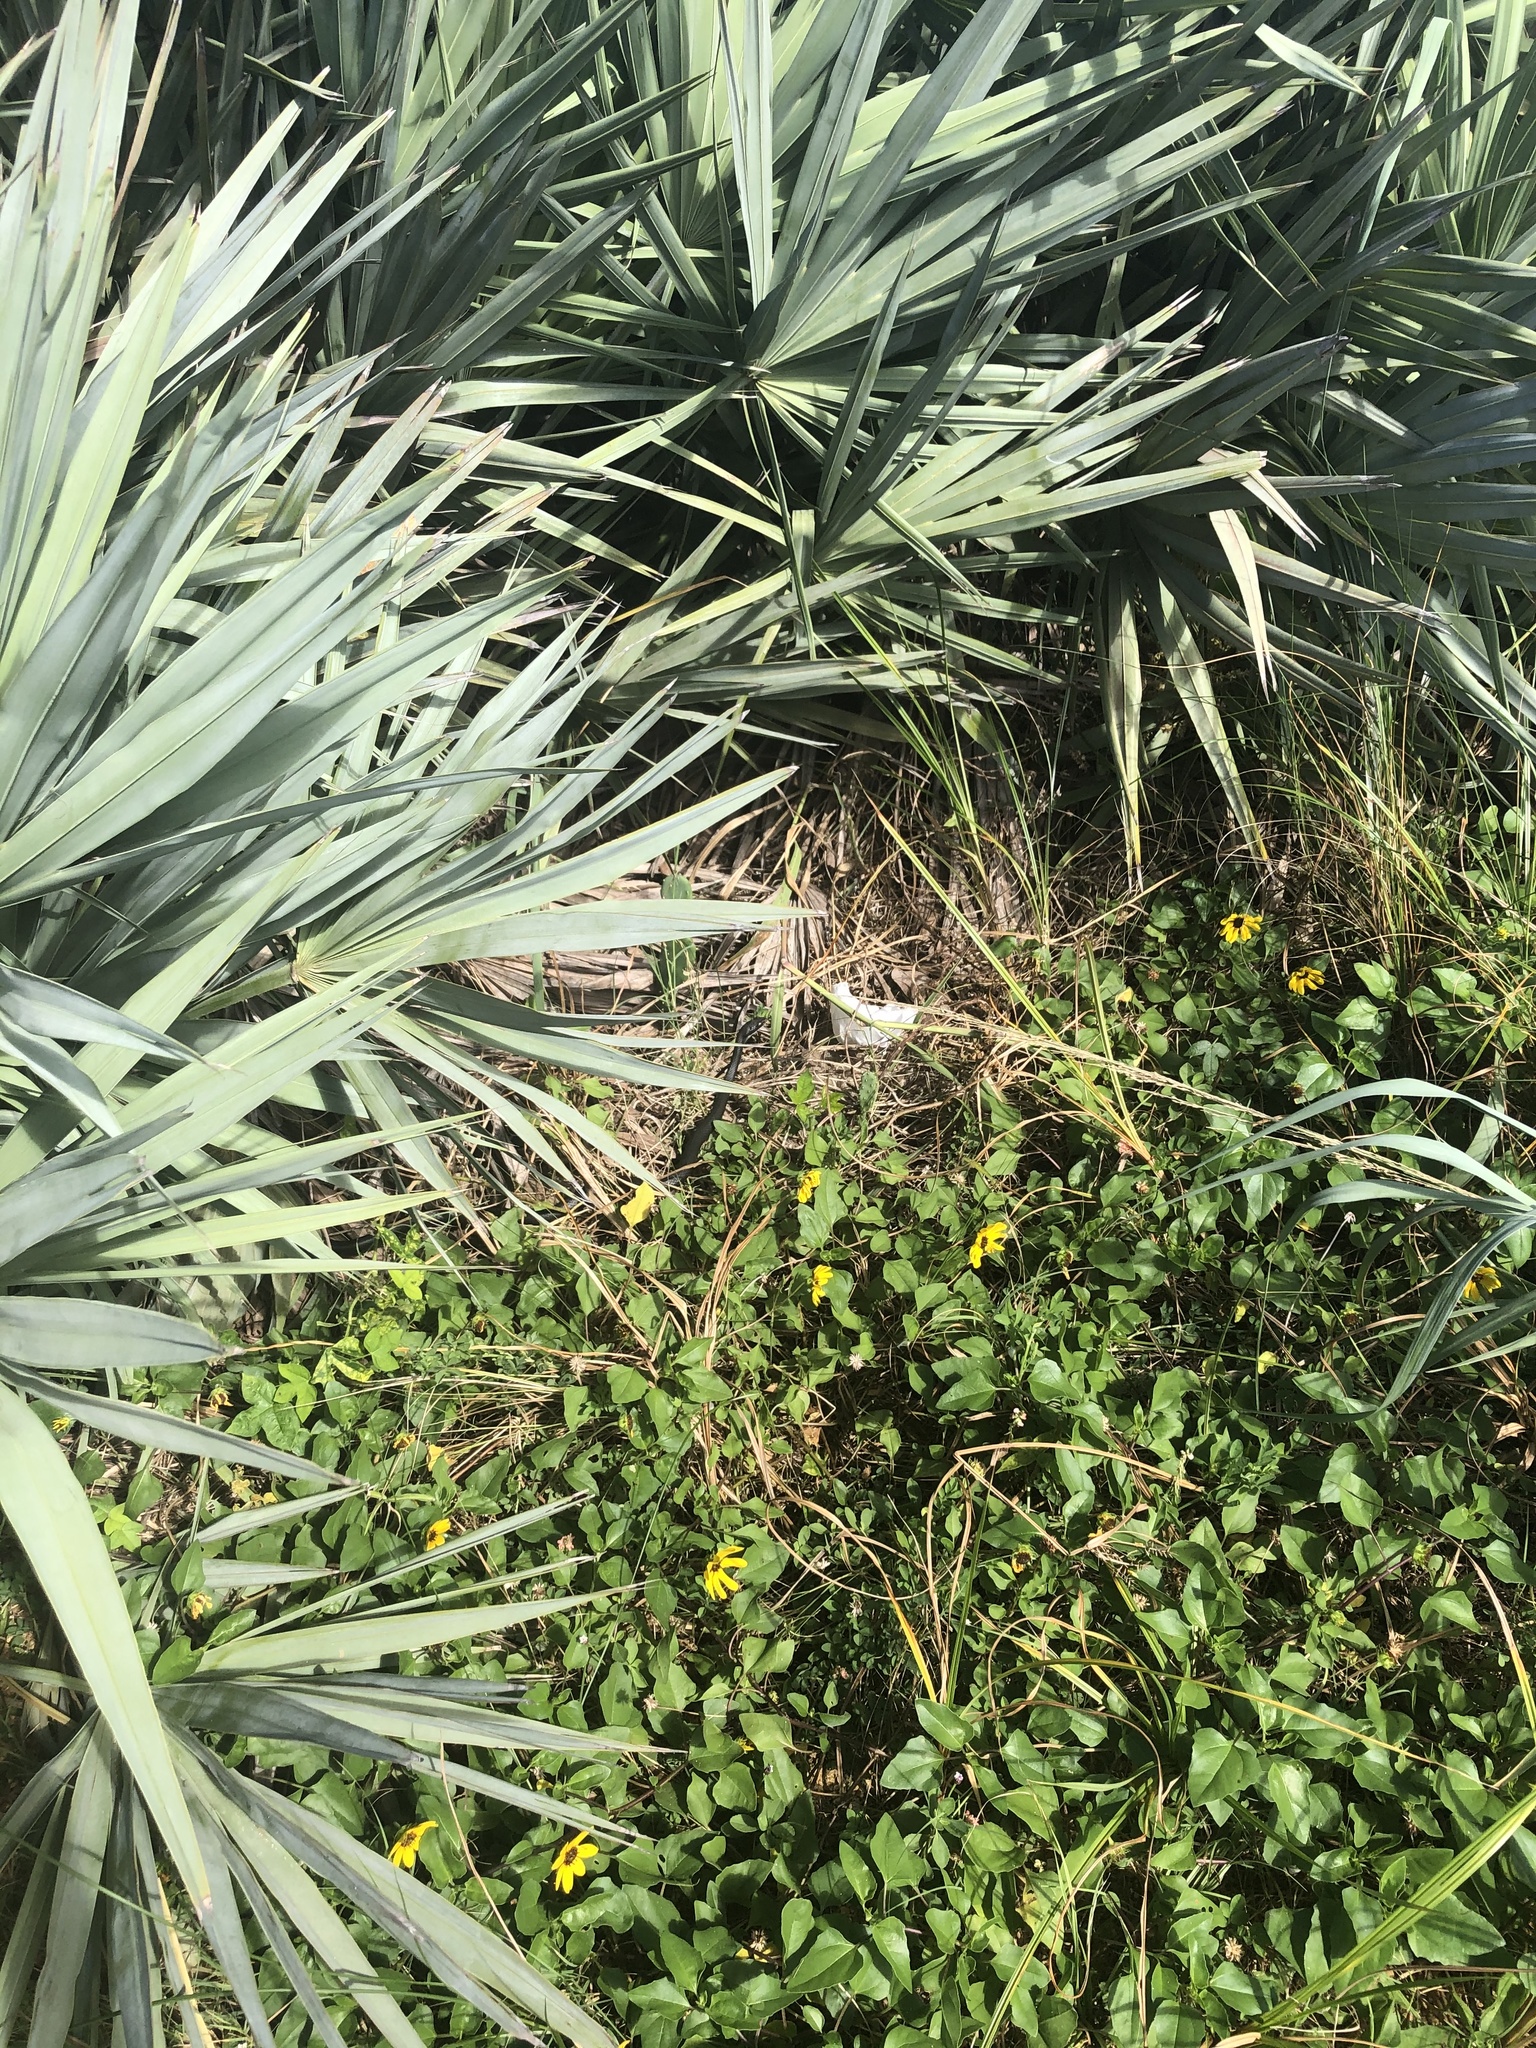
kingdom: Animalia
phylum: Chordata
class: Squamata
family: Colubridae
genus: Coluber
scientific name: Coluber constrictor
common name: Eastern racer
